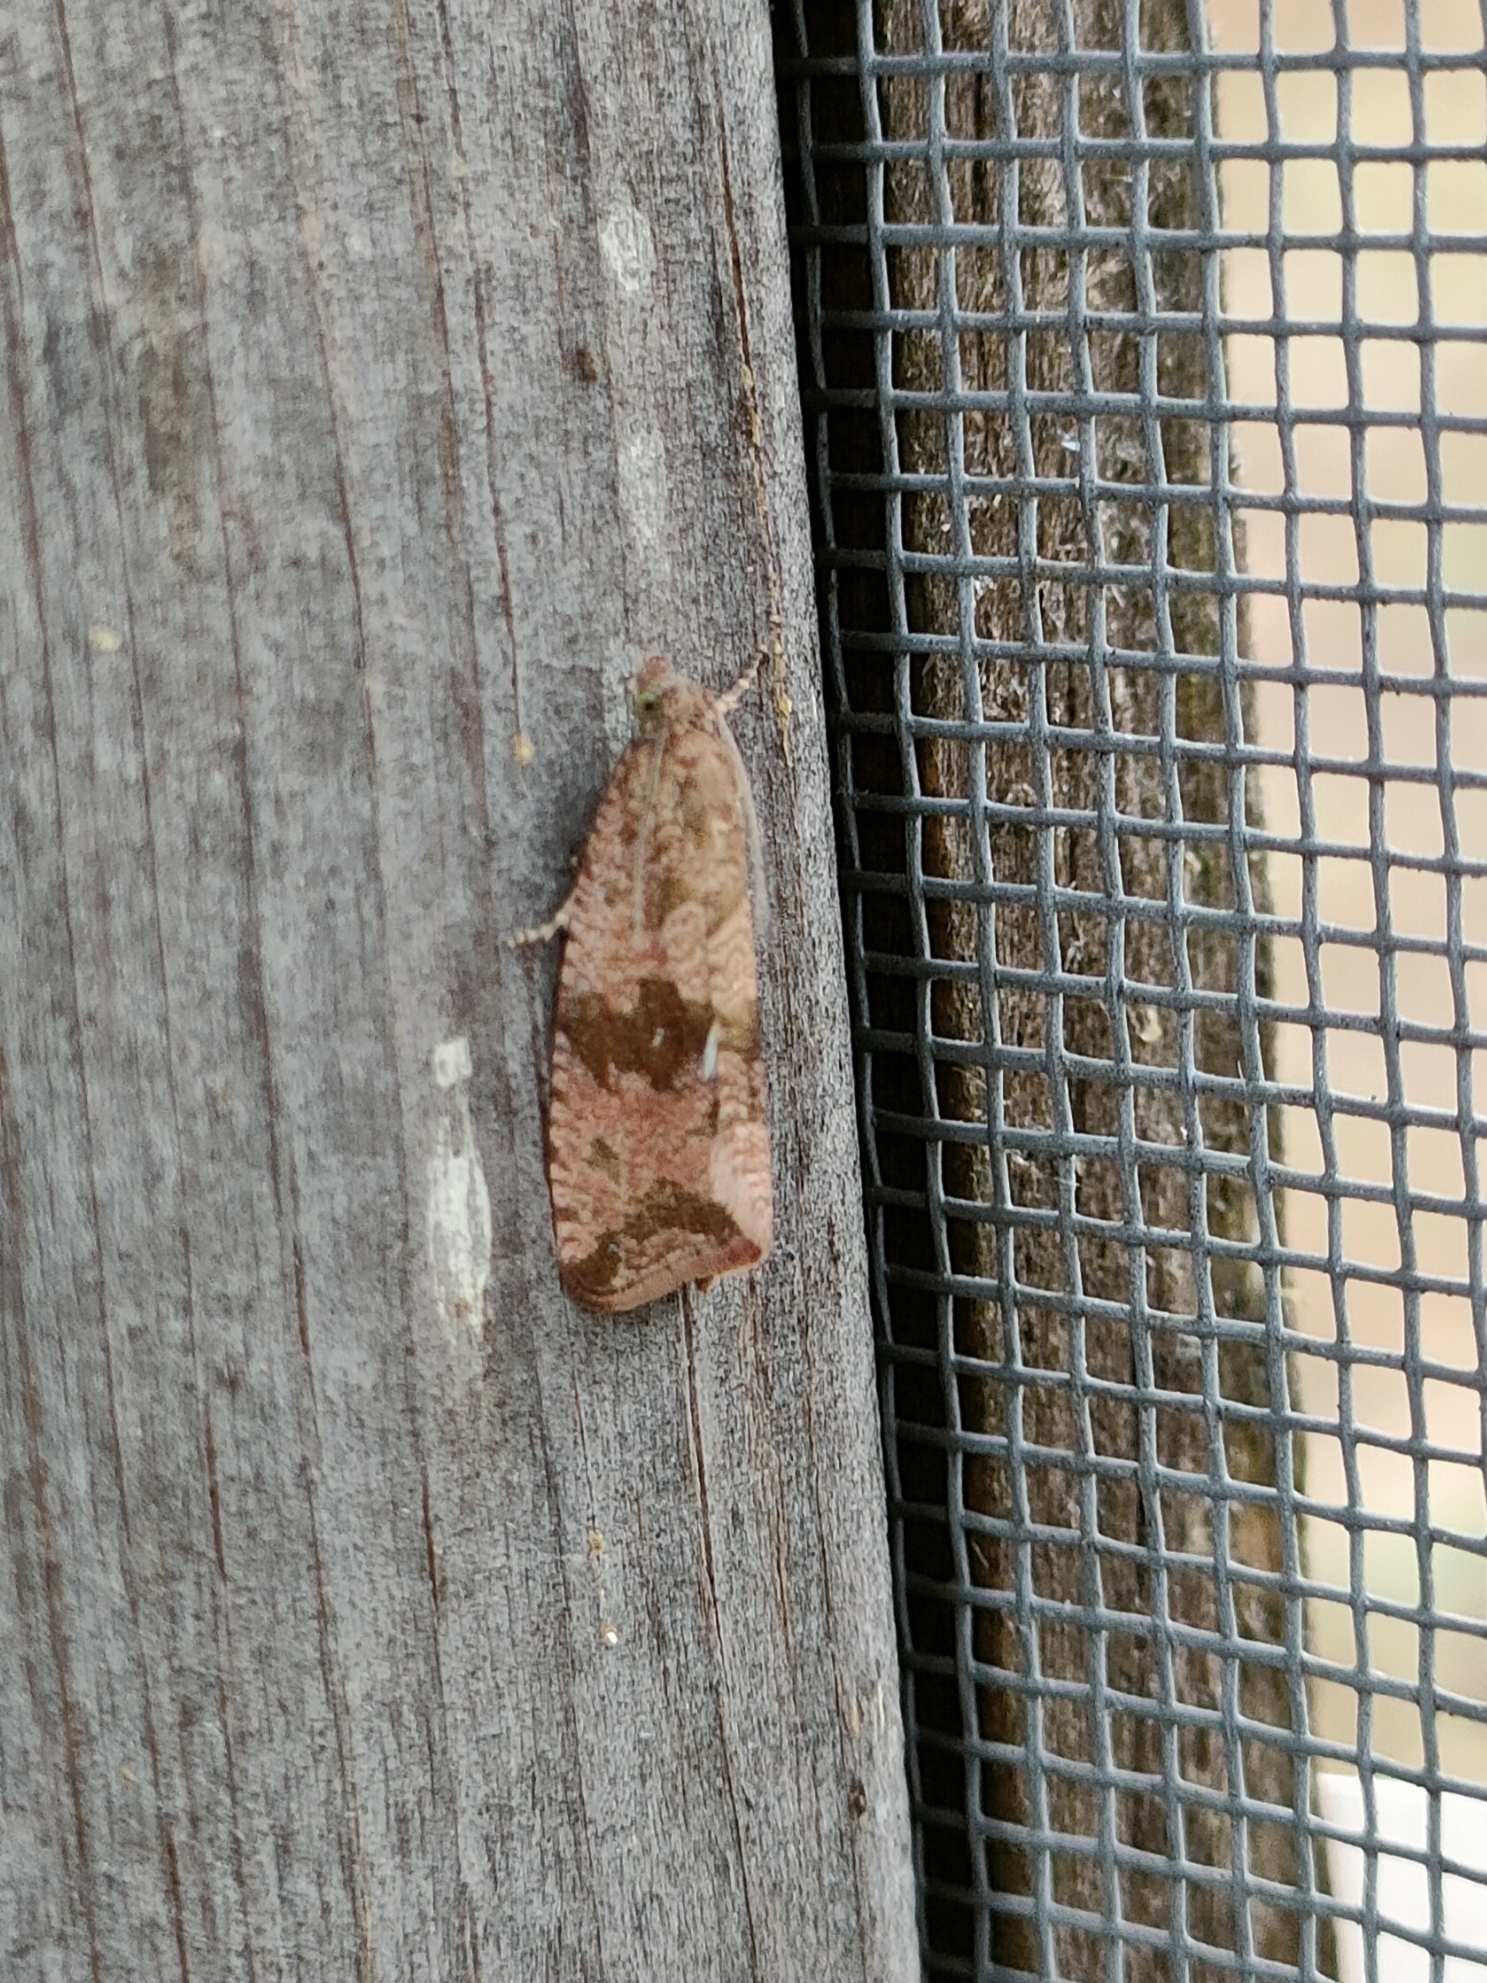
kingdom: Animalia
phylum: Arthropoda
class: Insecta
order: Lepidoptera
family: Tortricidae
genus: Celypha
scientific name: Celypha striana
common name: Barred marble
